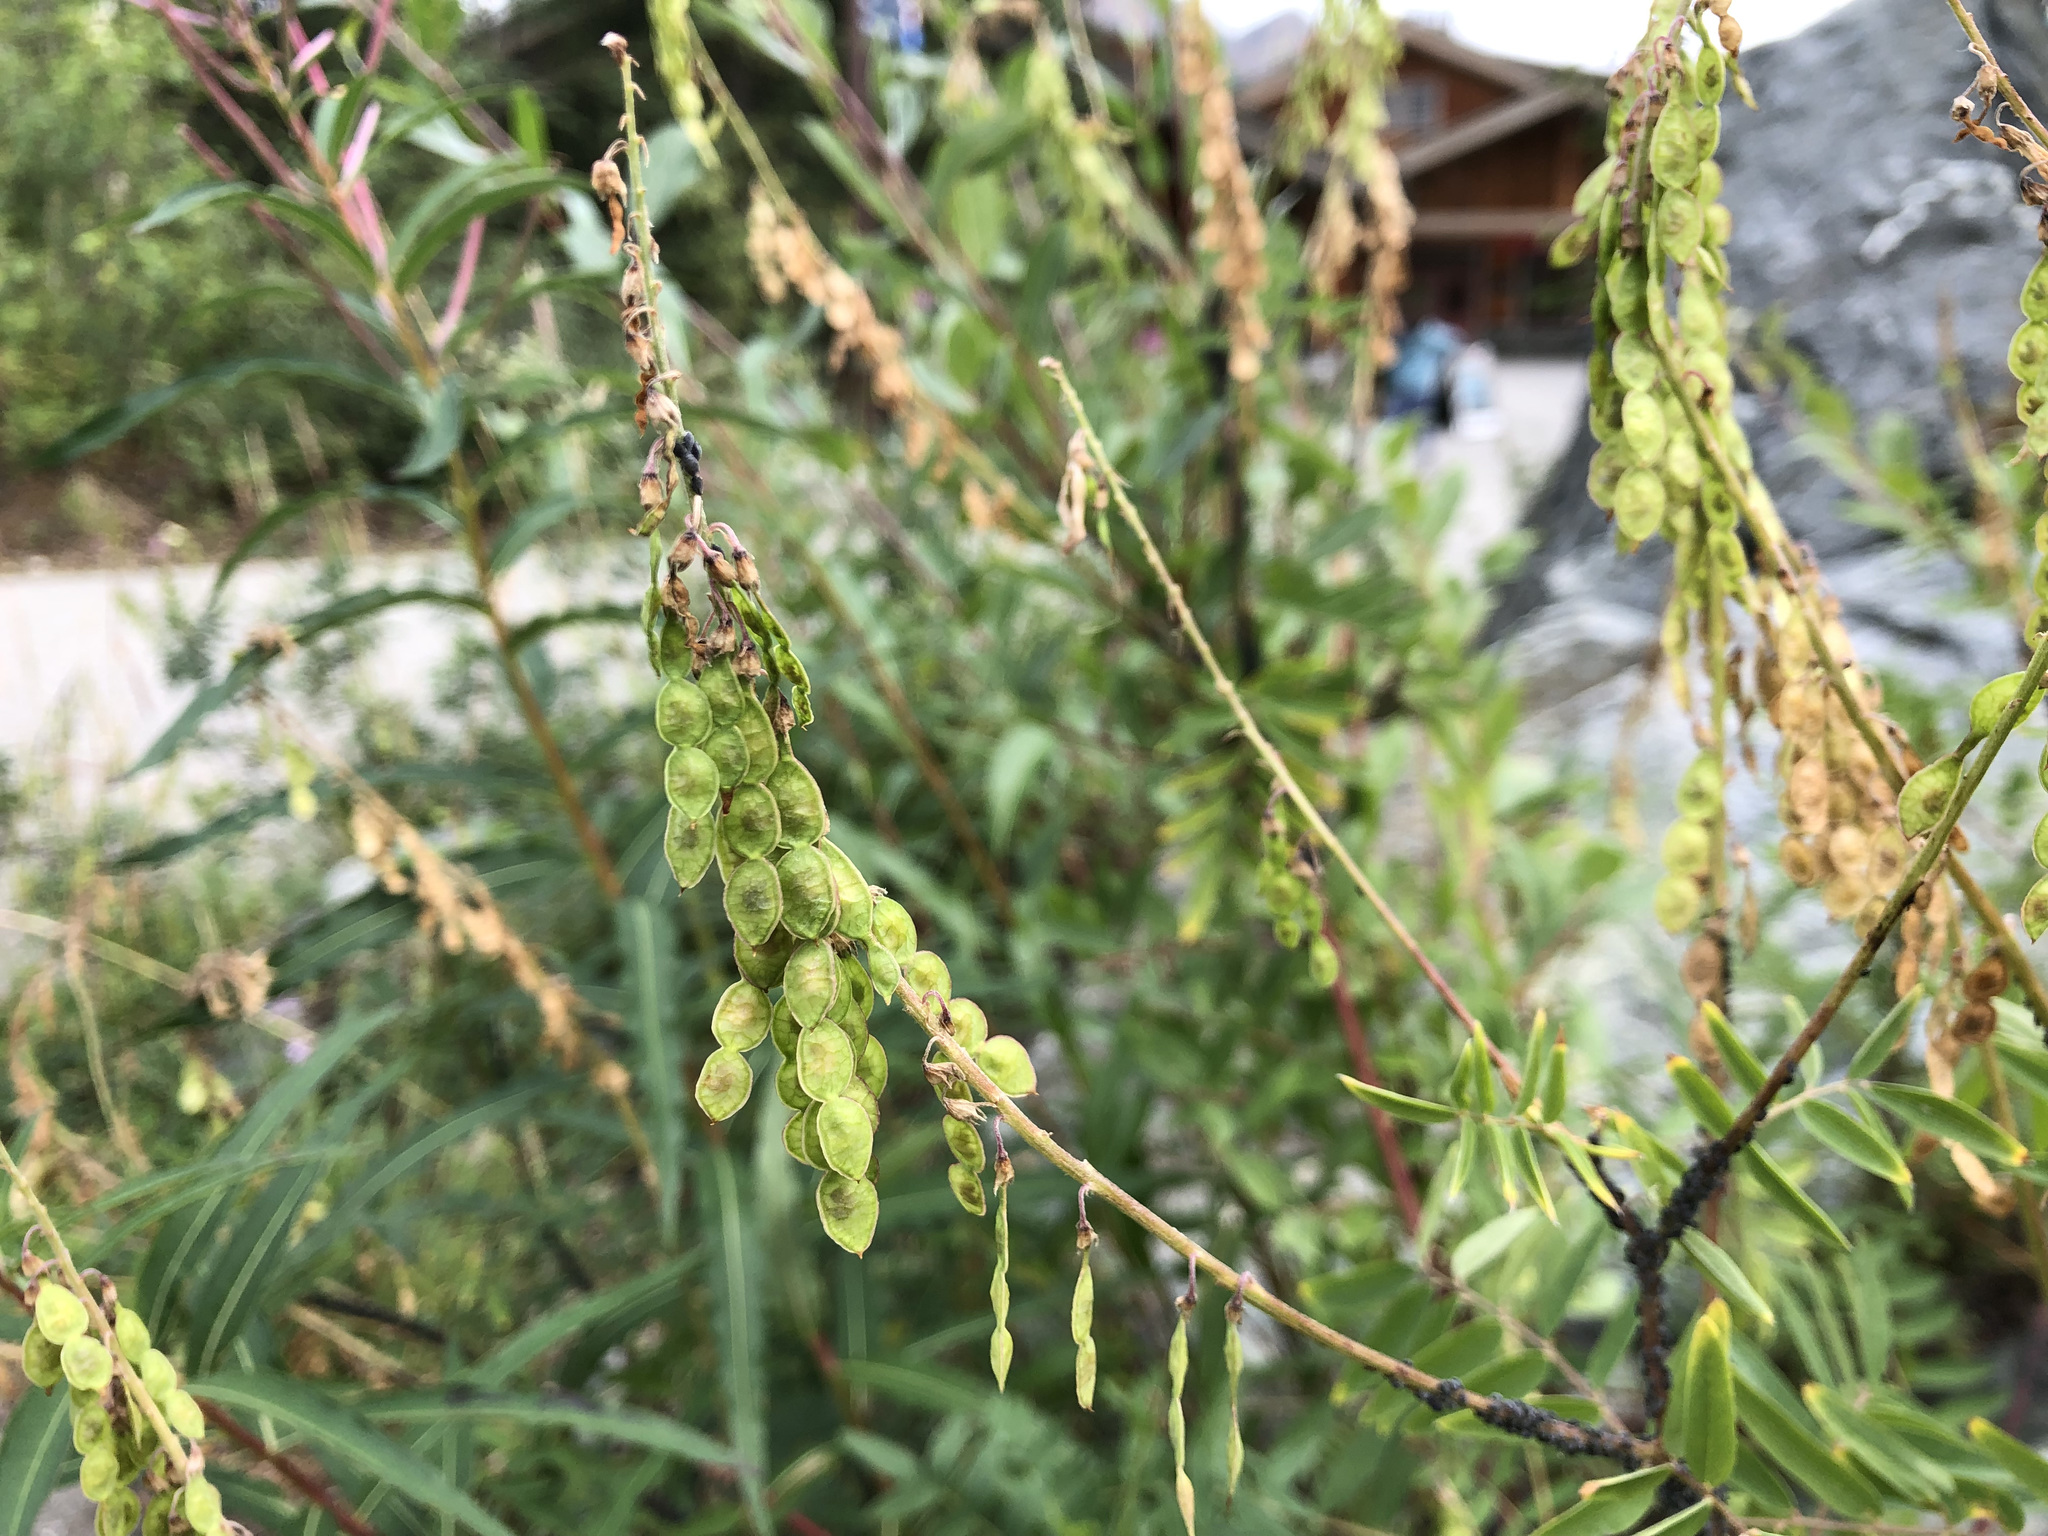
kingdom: Plantae
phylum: Tracheophyta
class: Magnoliopsida
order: Fabales
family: Fabaceae
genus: Hedysarum
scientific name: Hedysarum alpinum
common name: Alpine sweet-vetch
